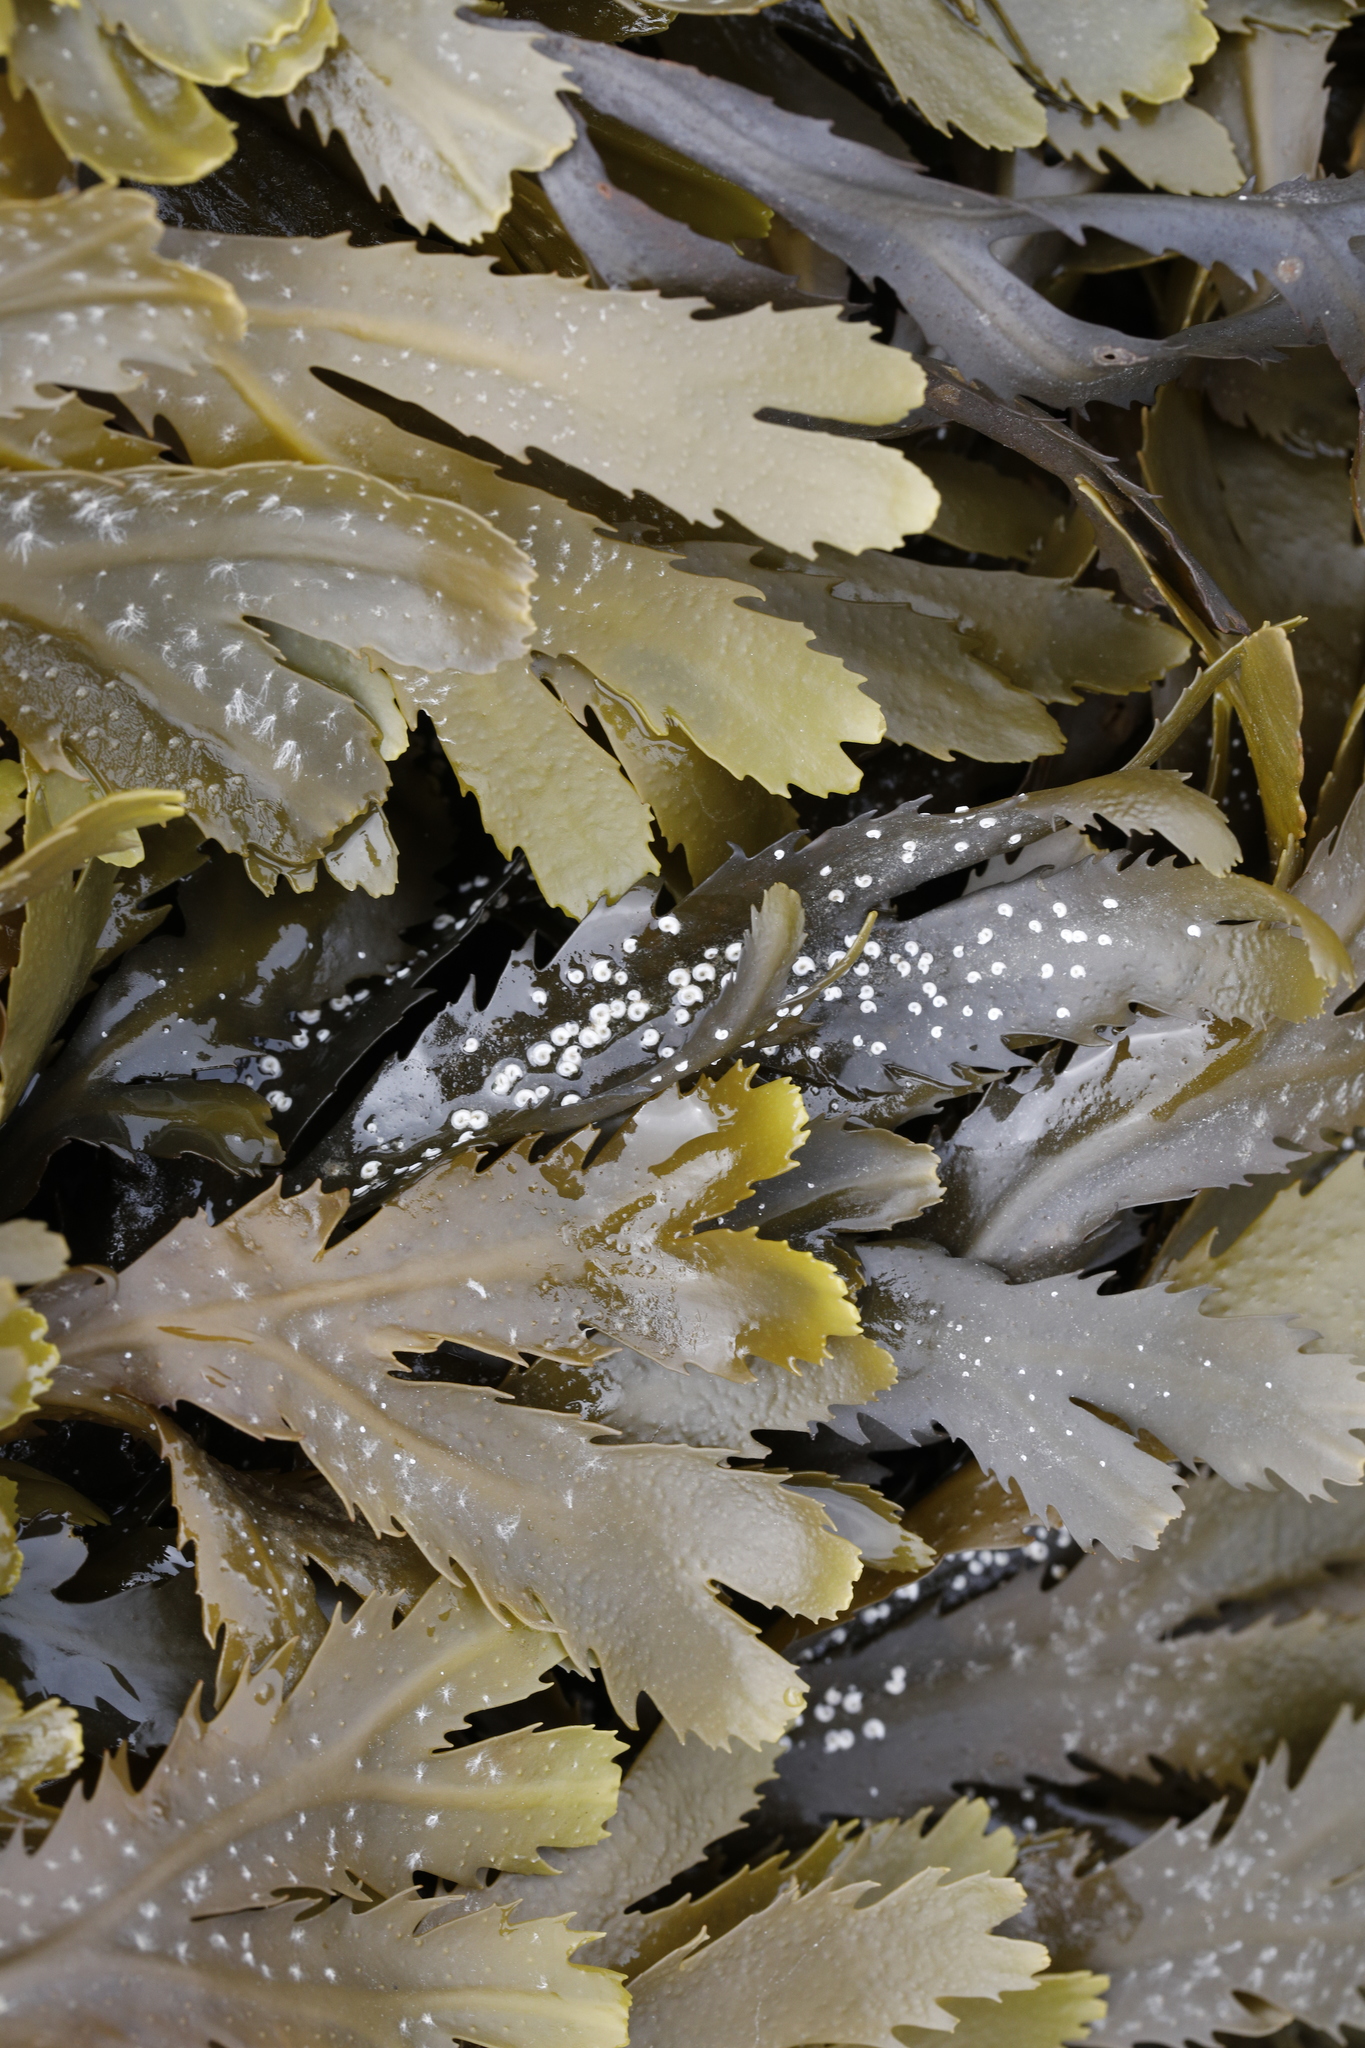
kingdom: Chromista
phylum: Ochrophyta
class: Phaeophyceae
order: Fucales
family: Fucaceae
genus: Fucus
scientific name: Fucus serratus
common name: Toothed wrack
